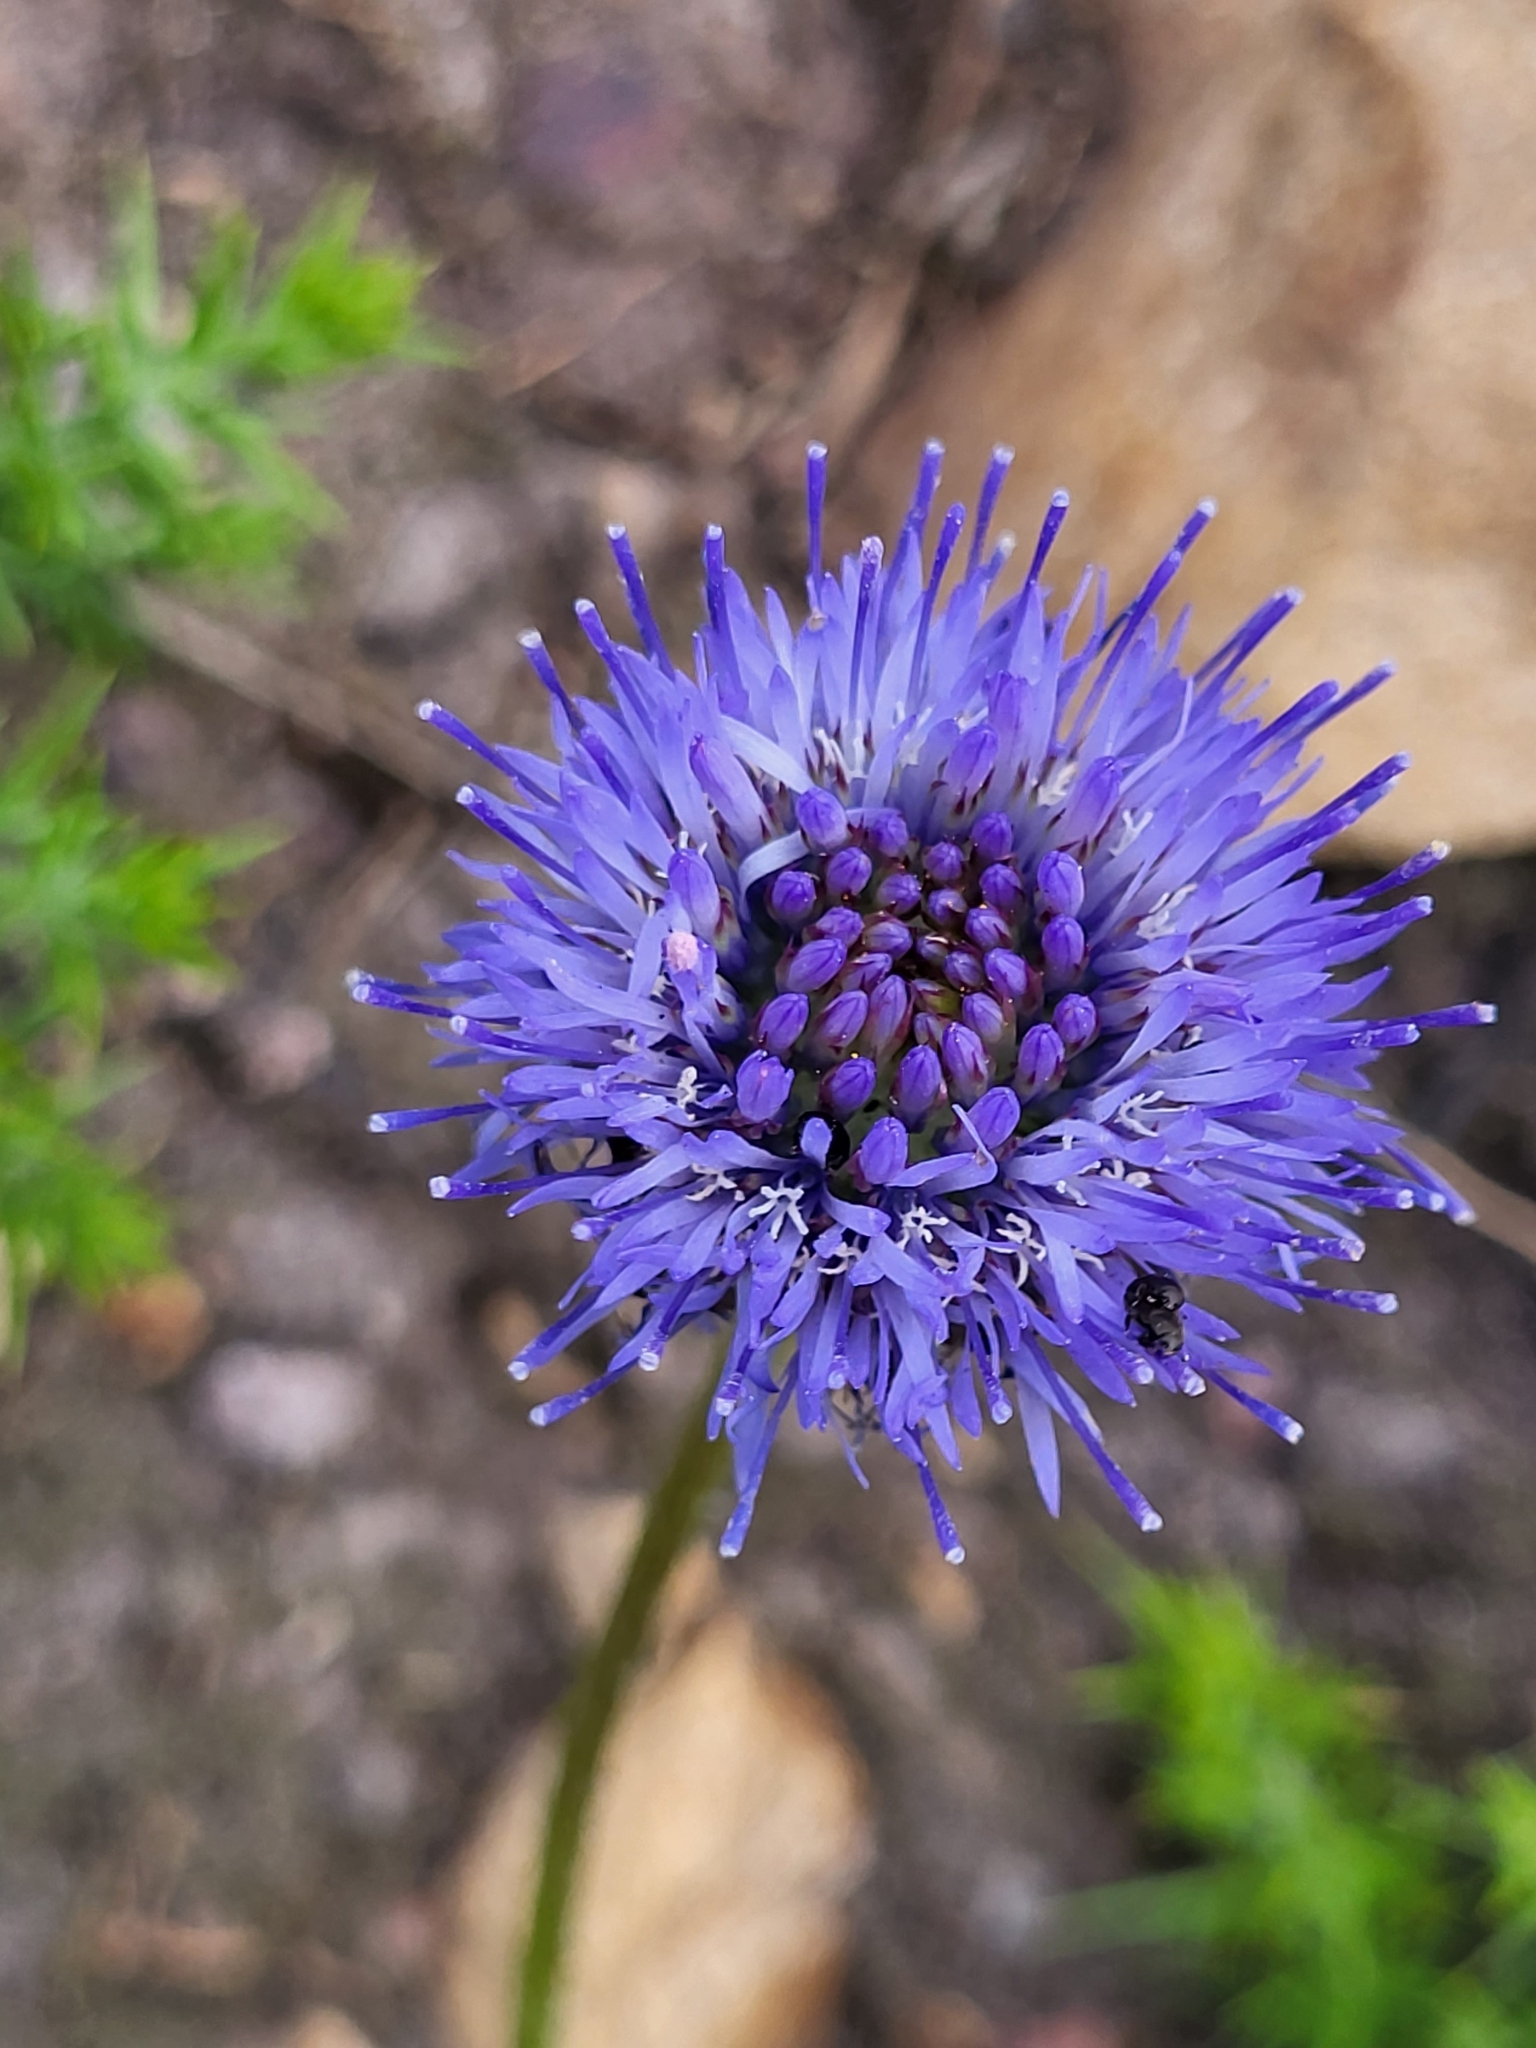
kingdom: Plantae
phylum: Tracheophyta
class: Magnoliopsida
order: Asterales
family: Campanulaceae
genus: Jasione
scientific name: Jasione montana
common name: Sheep's-bit
